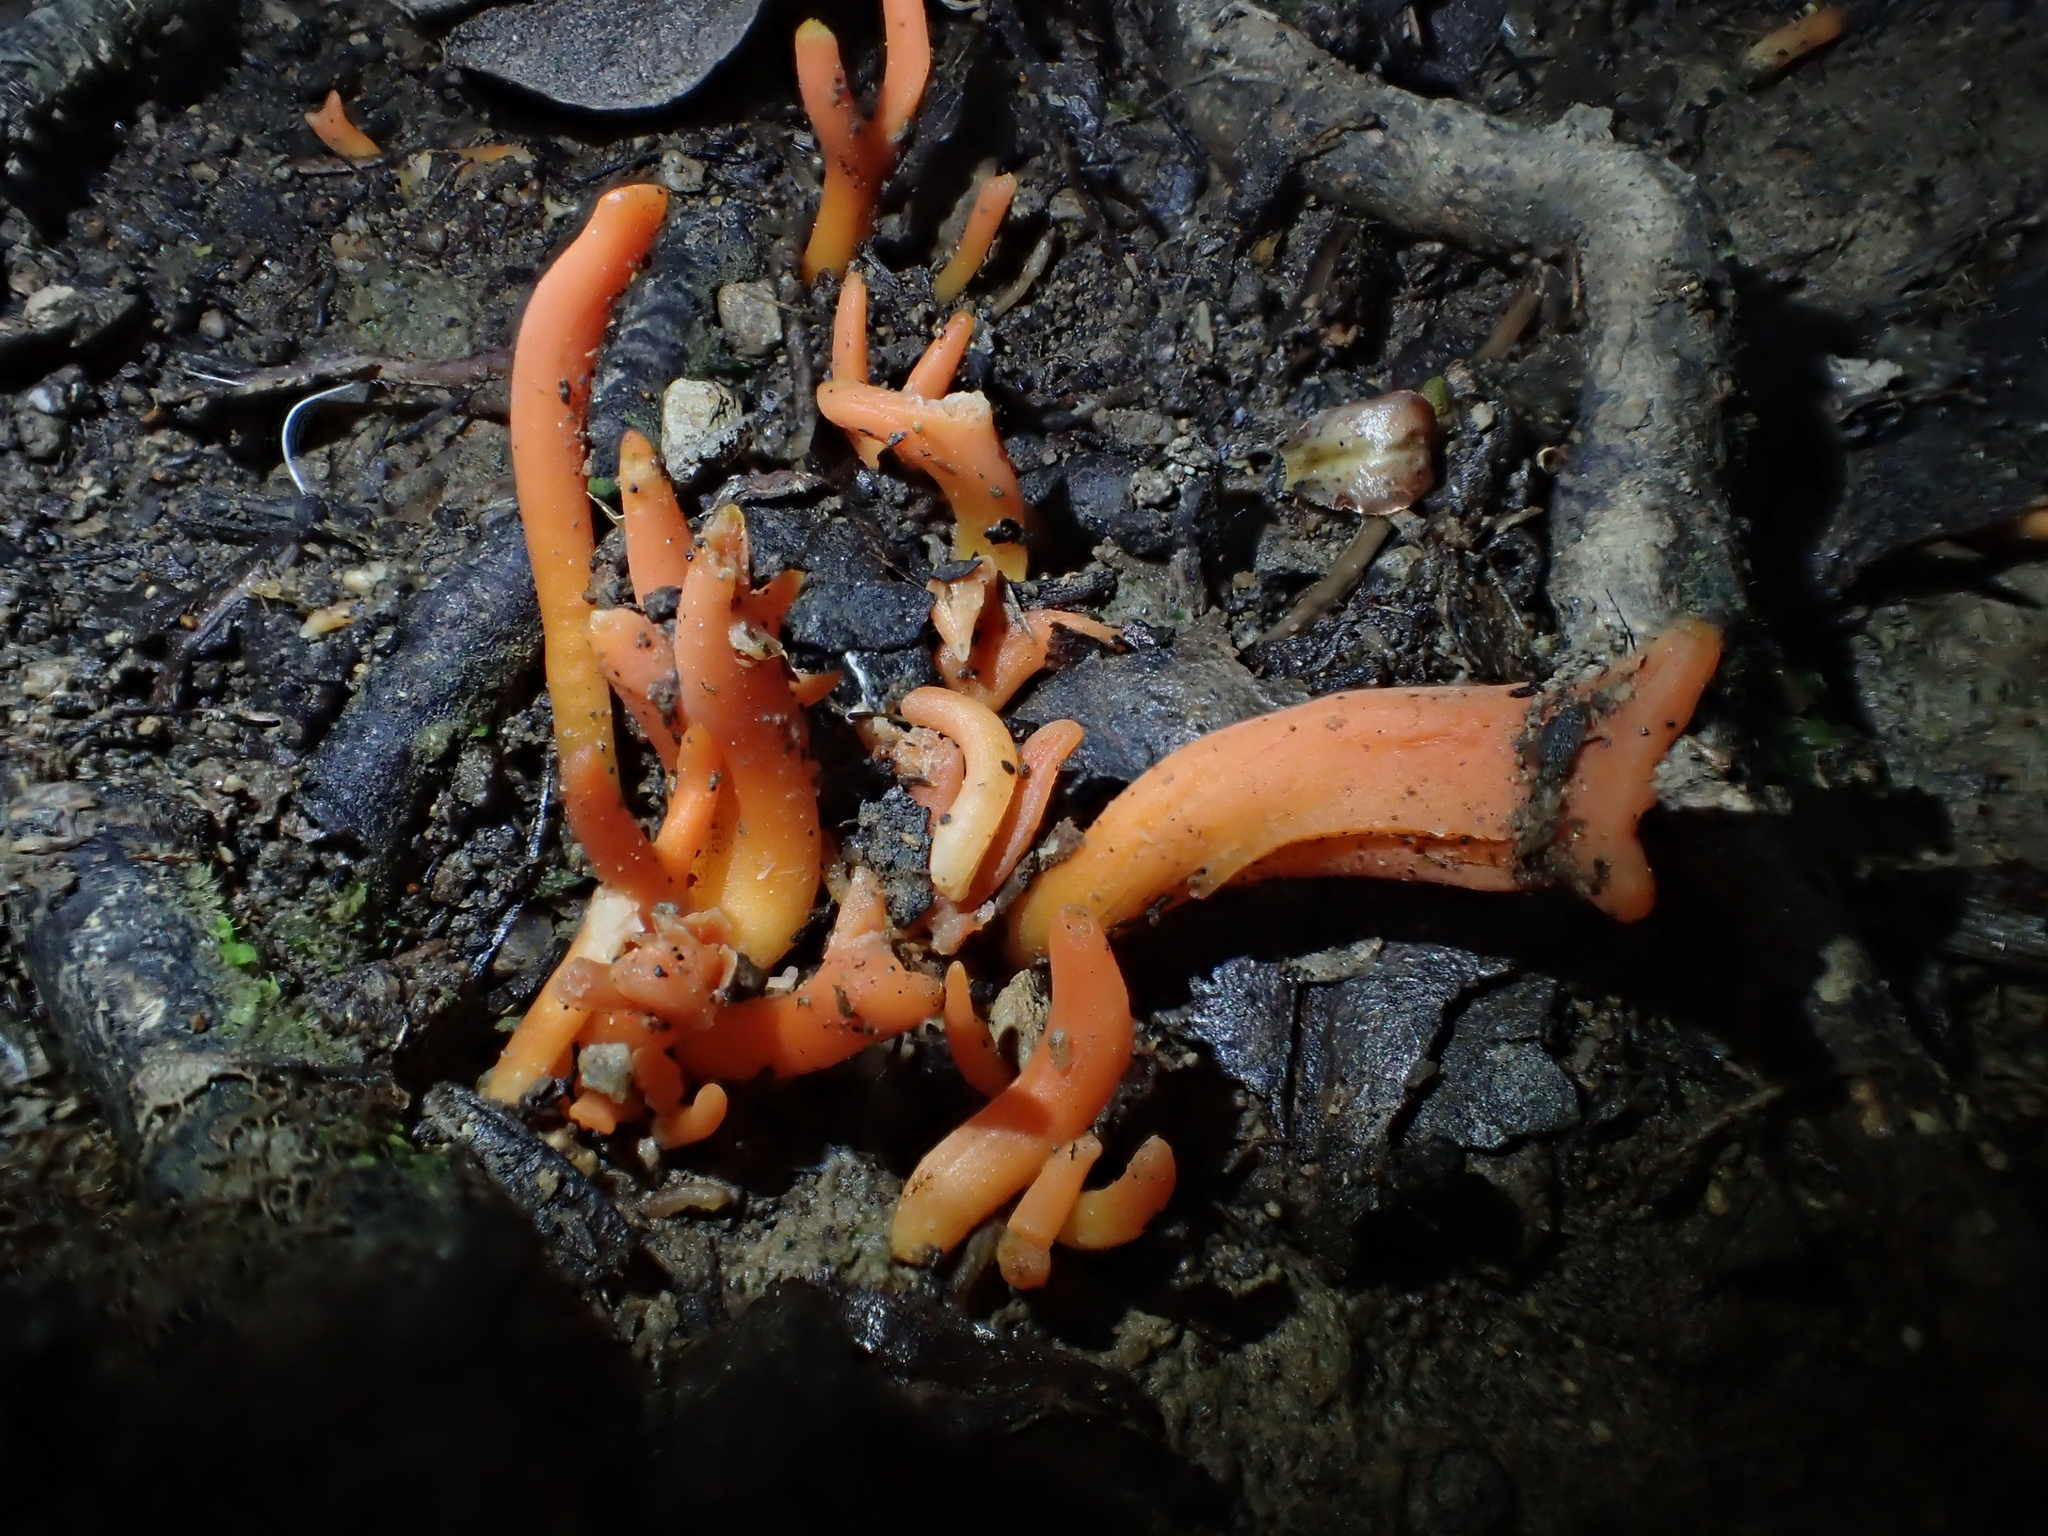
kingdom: Fungi
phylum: Basidiomycota
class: Agaricomycetes
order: Agaricales
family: Clavariaceae
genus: Clavulinopsis
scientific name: Clavulinopsis
